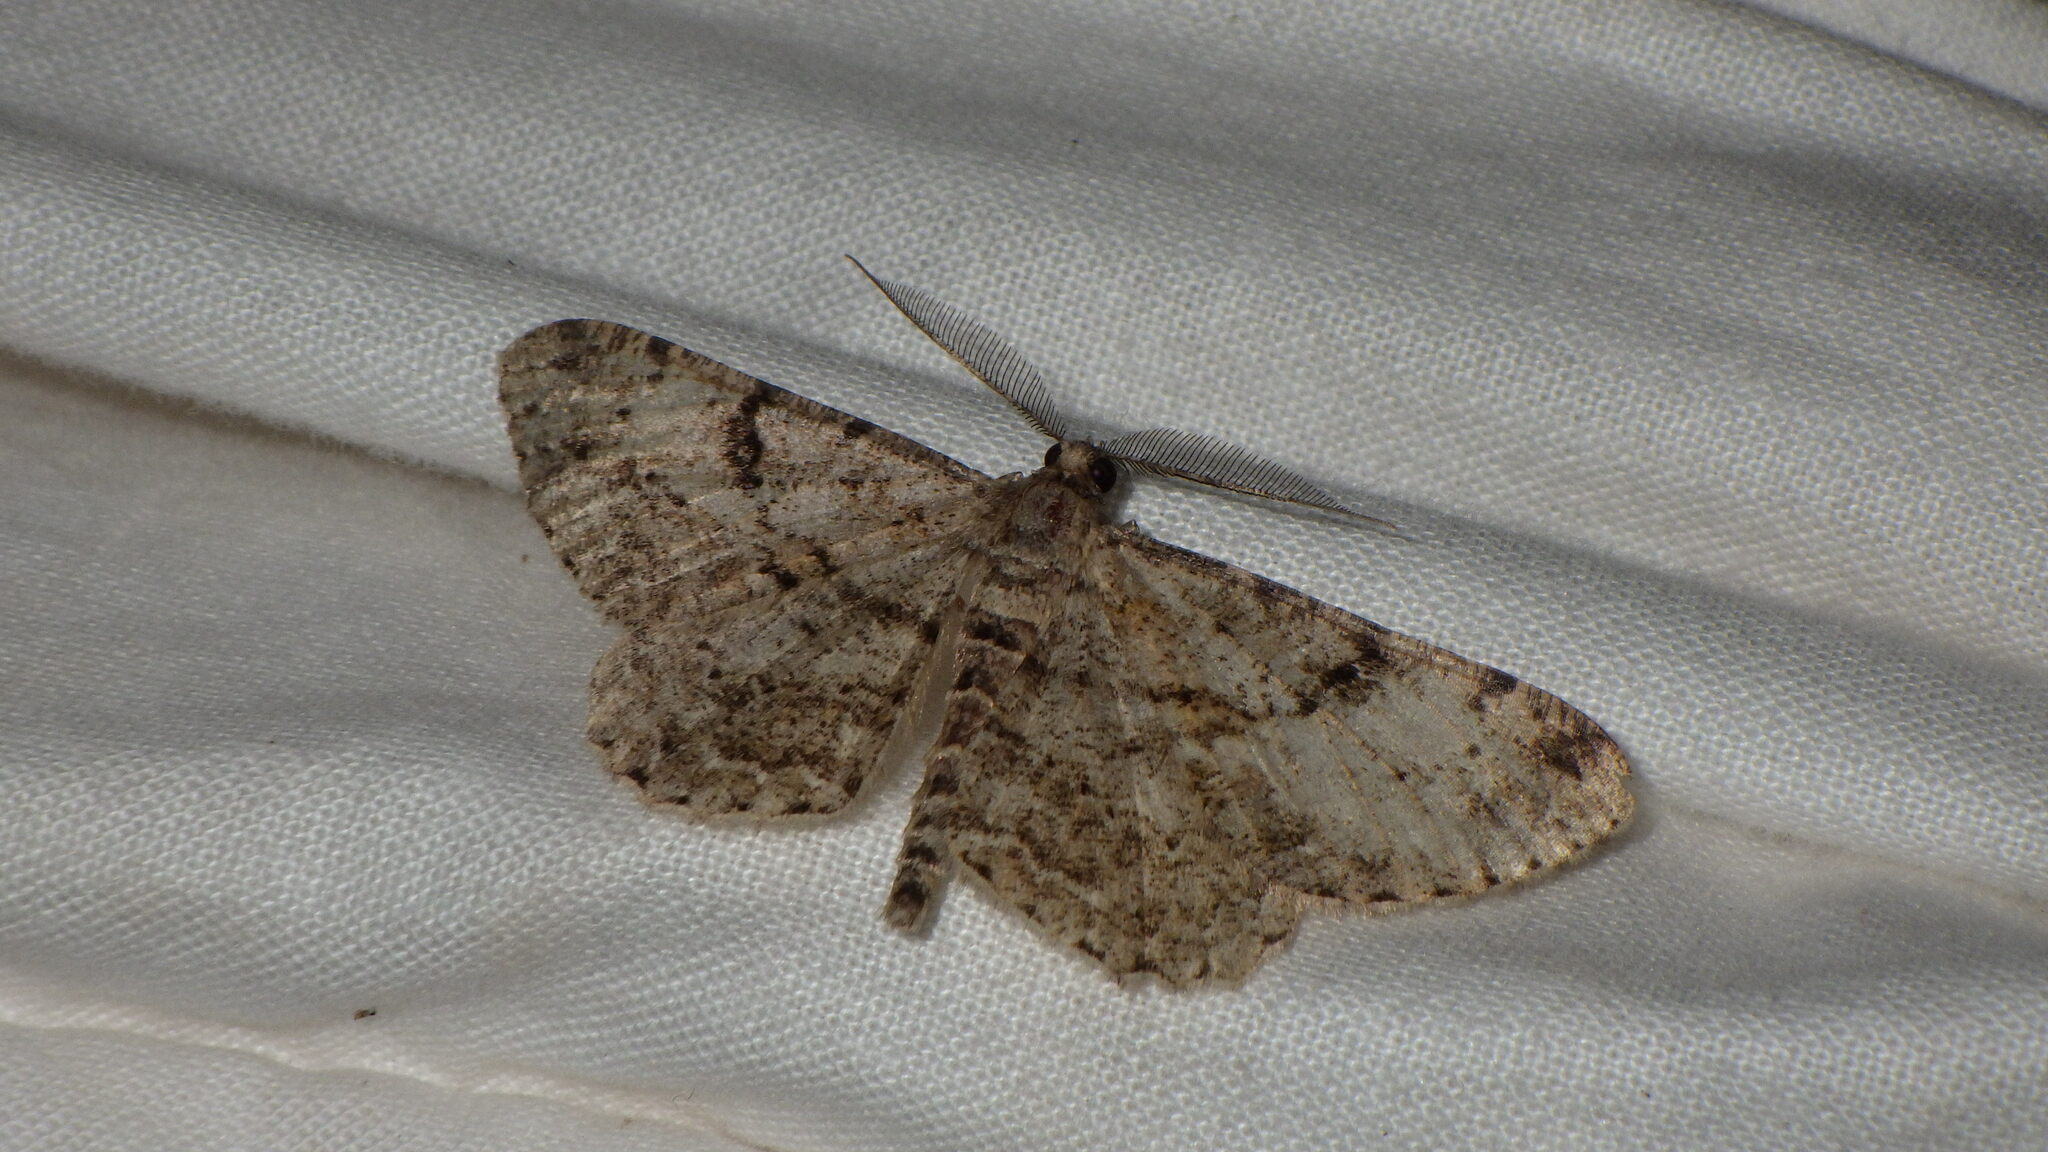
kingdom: Animalia
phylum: Arthropoda
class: Insecta
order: Lepidoptera
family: Geometridae
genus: Peribatodes
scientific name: Peribatodes rhomboidaria
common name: Willow beauty
